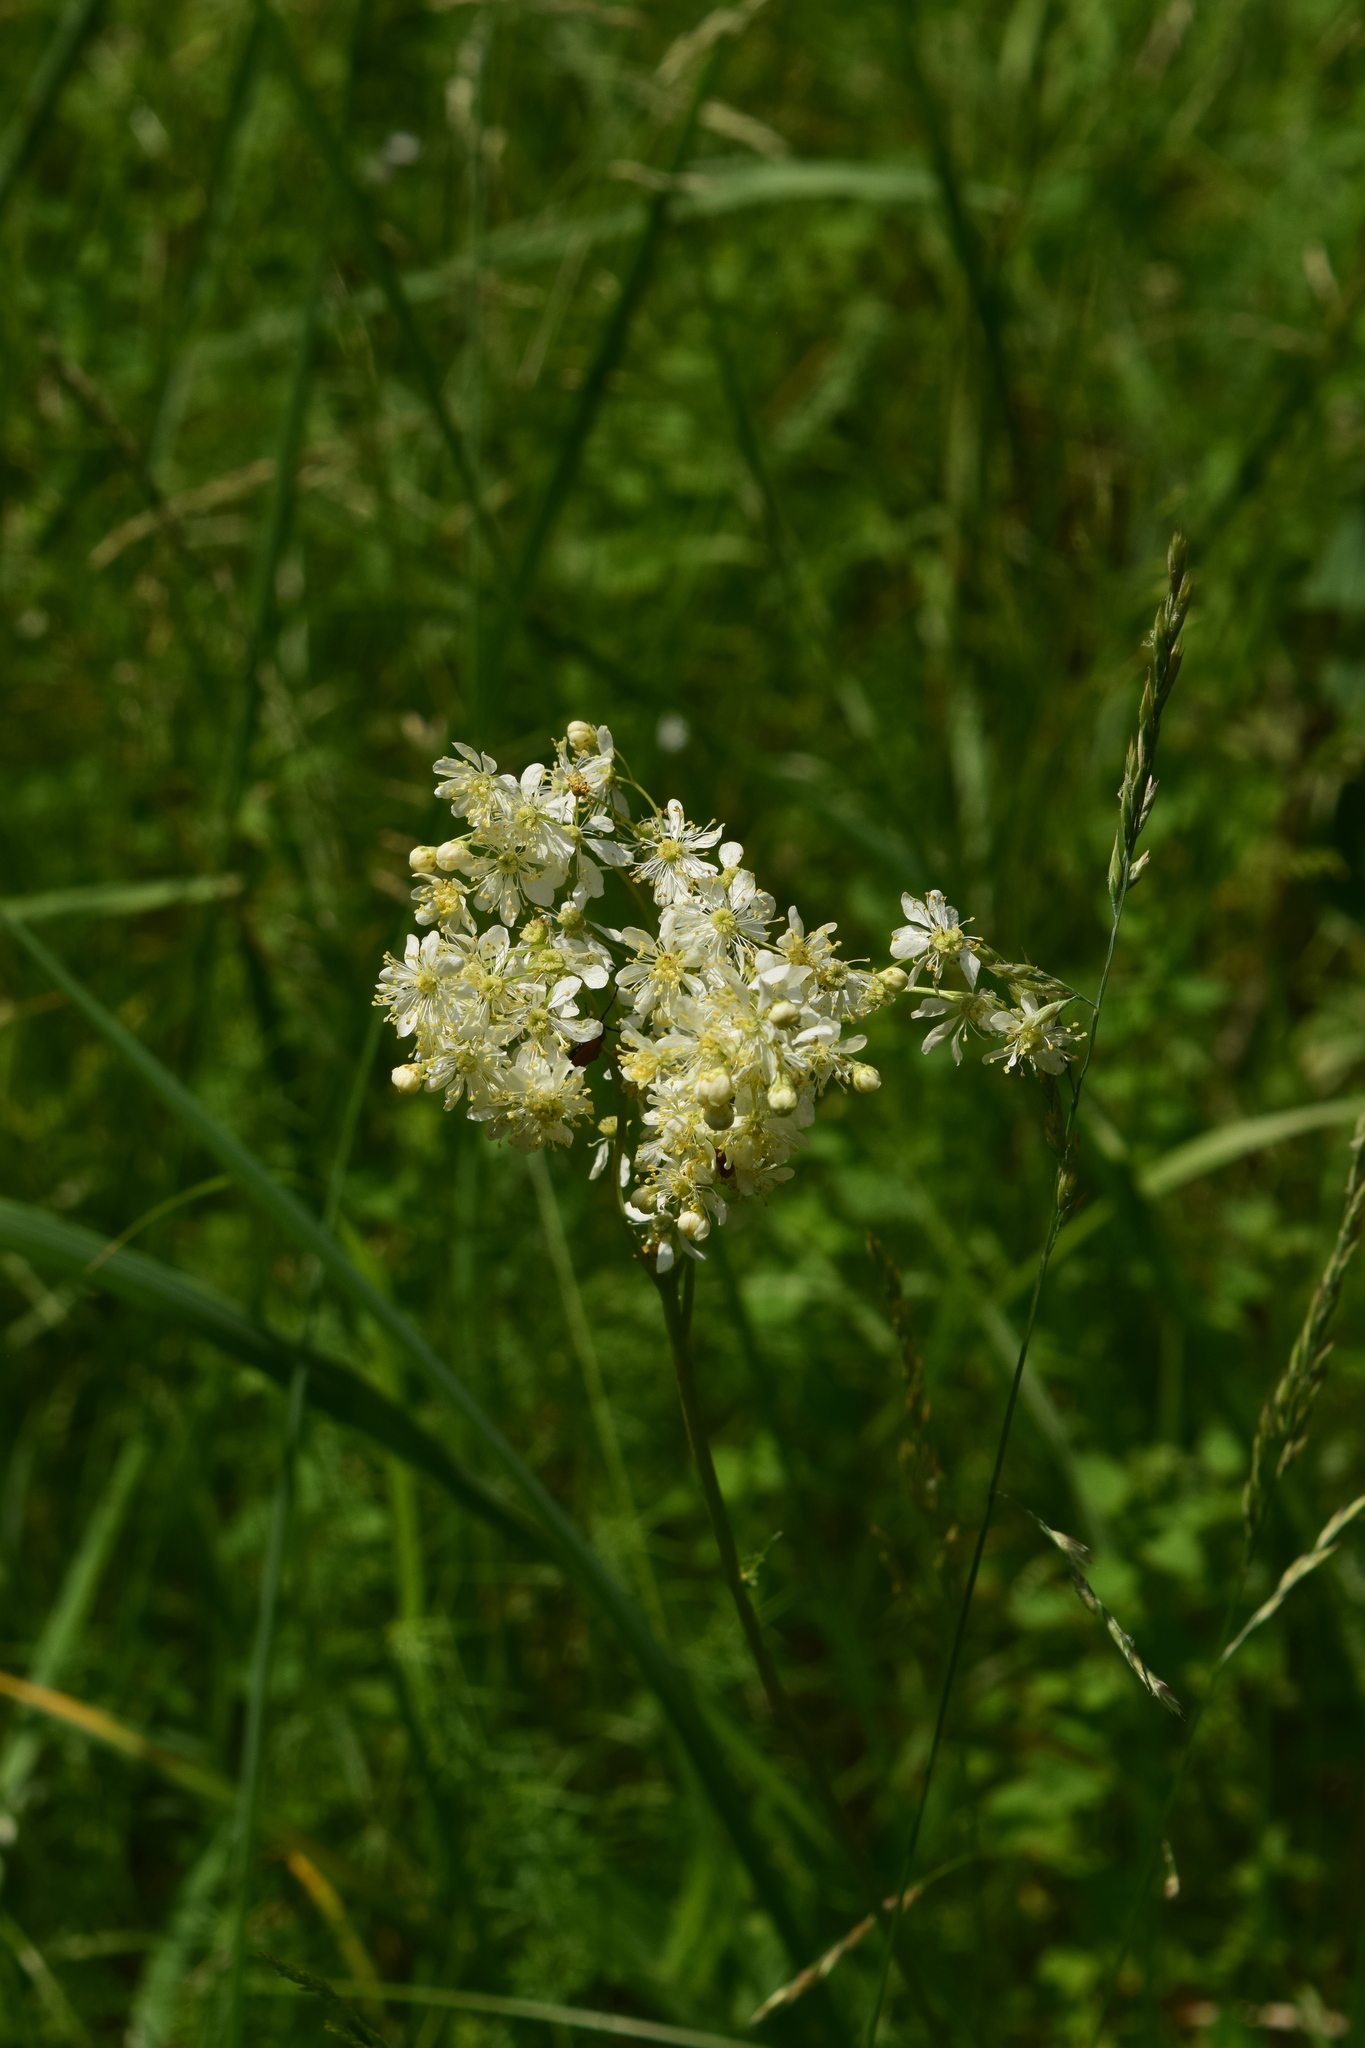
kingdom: Plantae
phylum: Tracheophyta
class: Magnoliopsida
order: Rosales
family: Rosaceae
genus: Filipendula
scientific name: Filipendula vulgaris
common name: Dropwort
